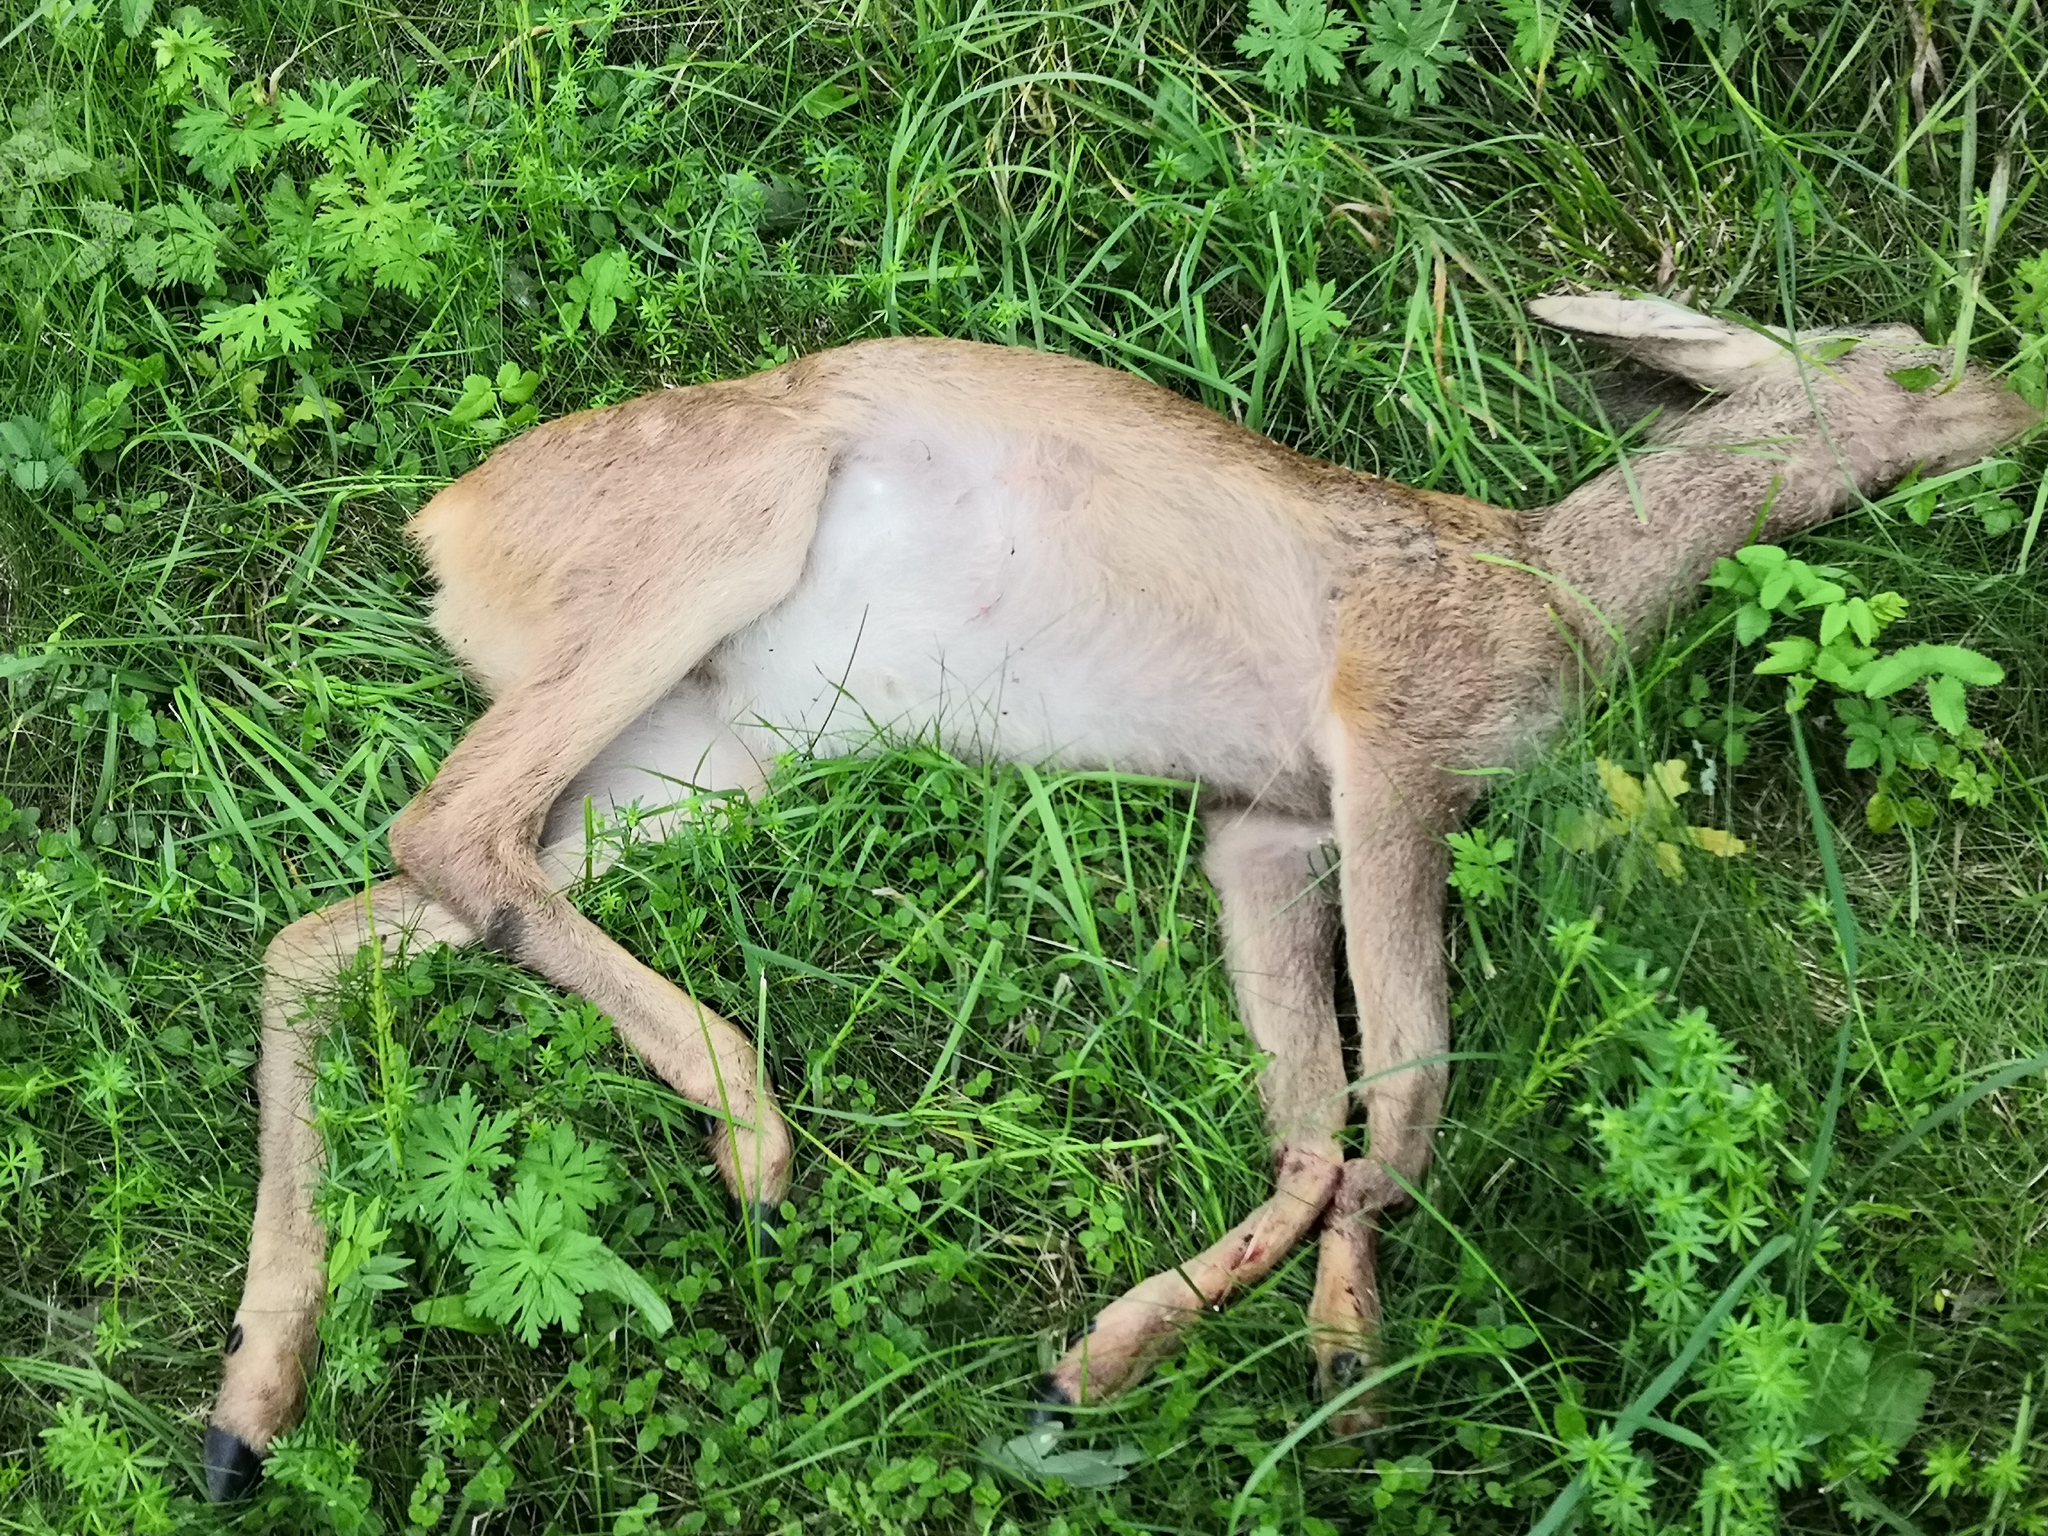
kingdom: Animalia
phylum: Chordata
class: Mammalia
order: Artiodactyla
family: Cervidae
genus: Capreolus
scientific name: Capreolus capreolus
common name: Western roe deer
